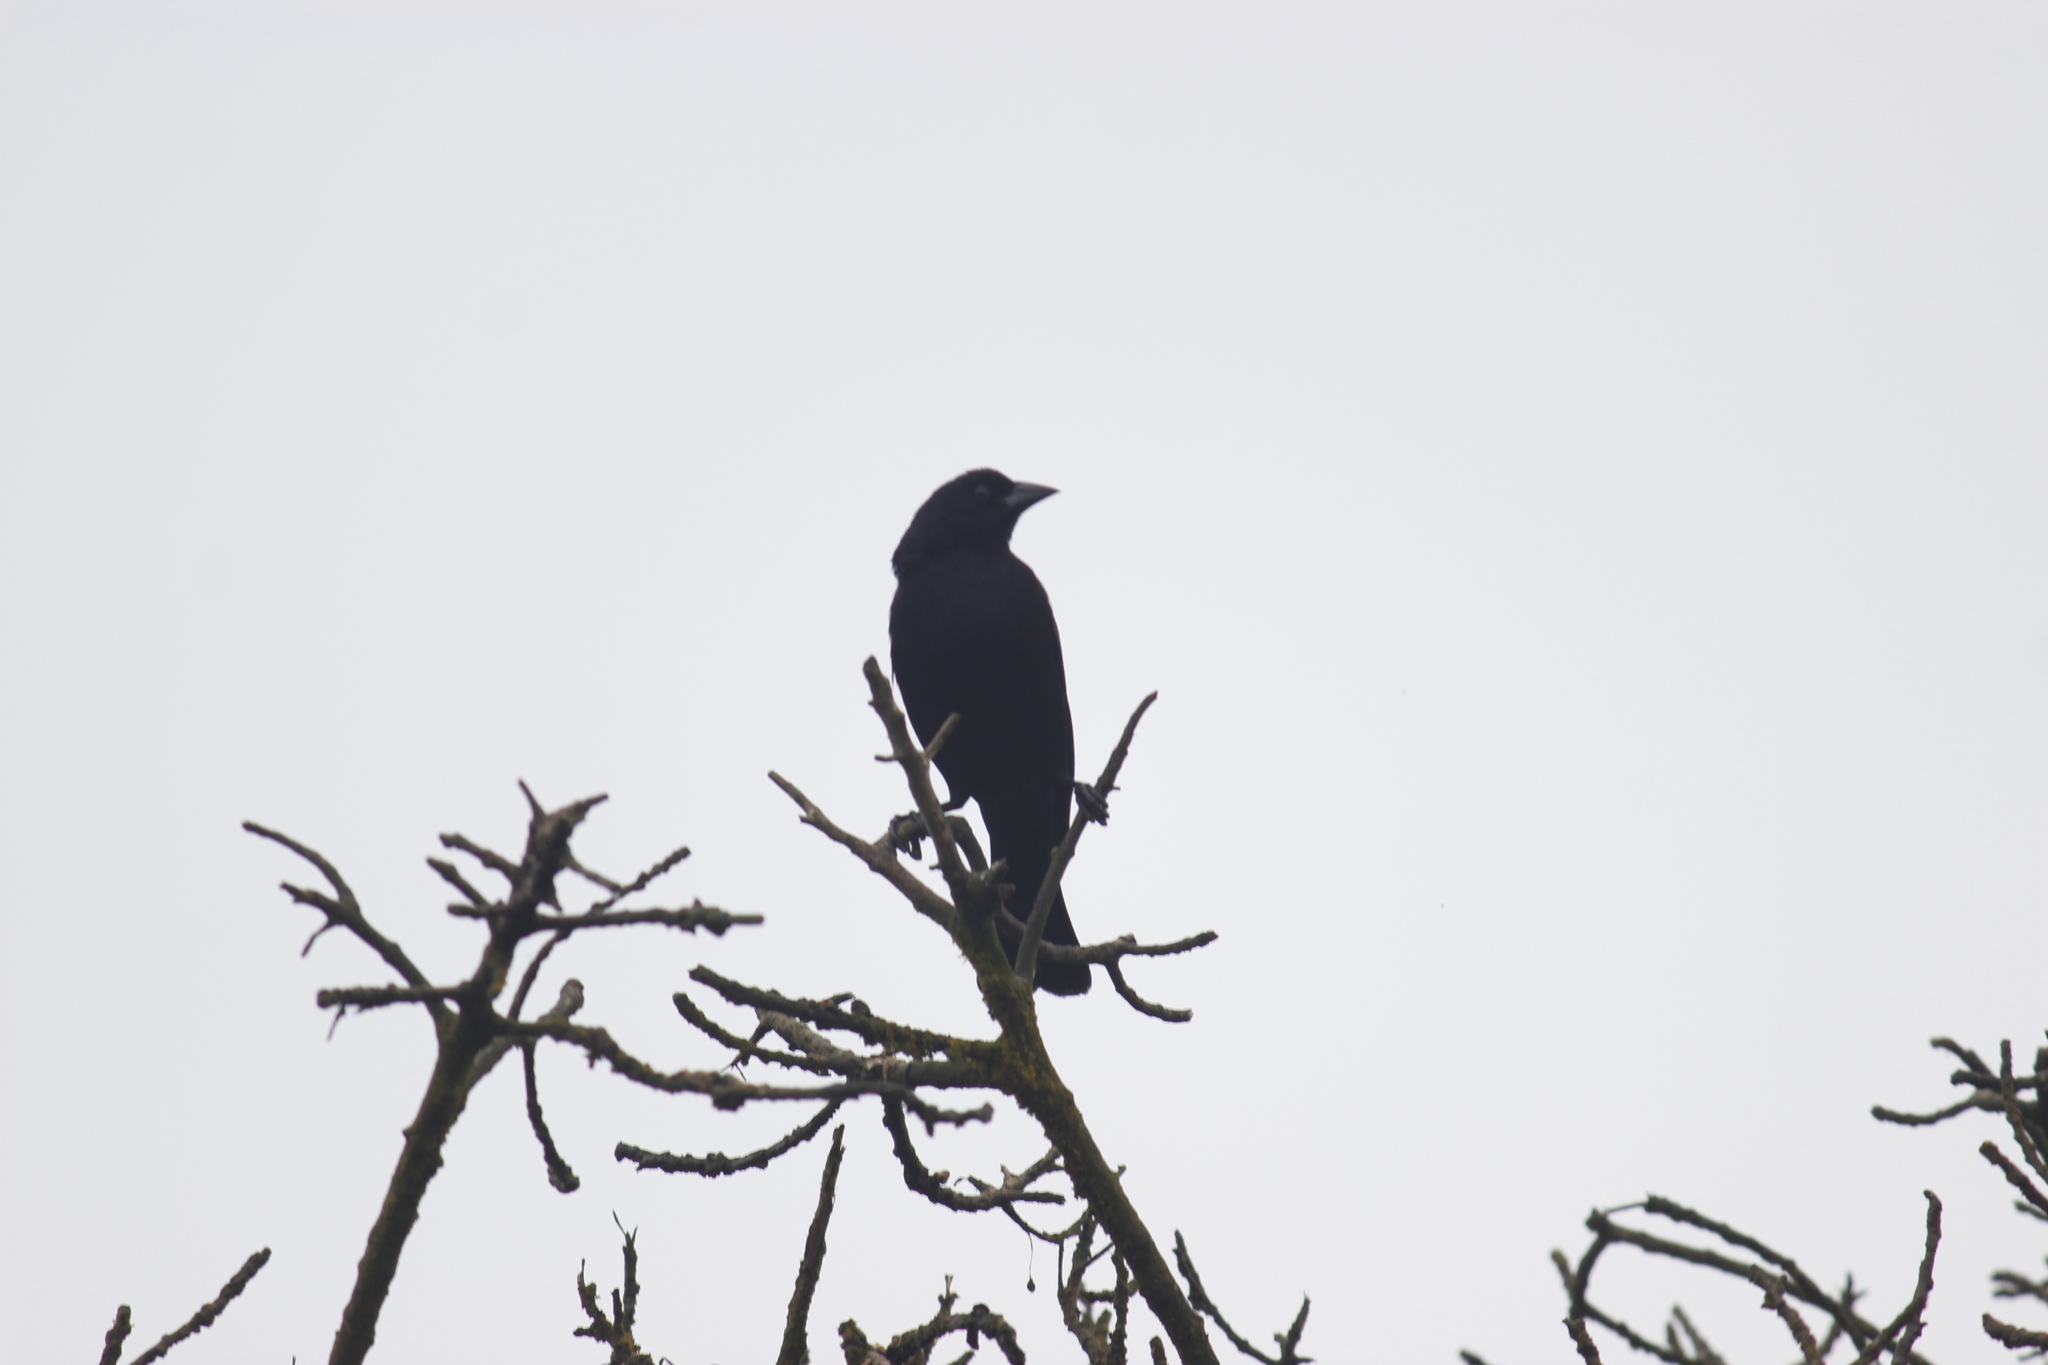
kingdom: Animalia
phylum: Chordata
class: Aves
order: Passeriformes
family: Icteridae
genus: Molothrus
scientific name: Molothrus bonariensis
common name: Shiny cowbird
